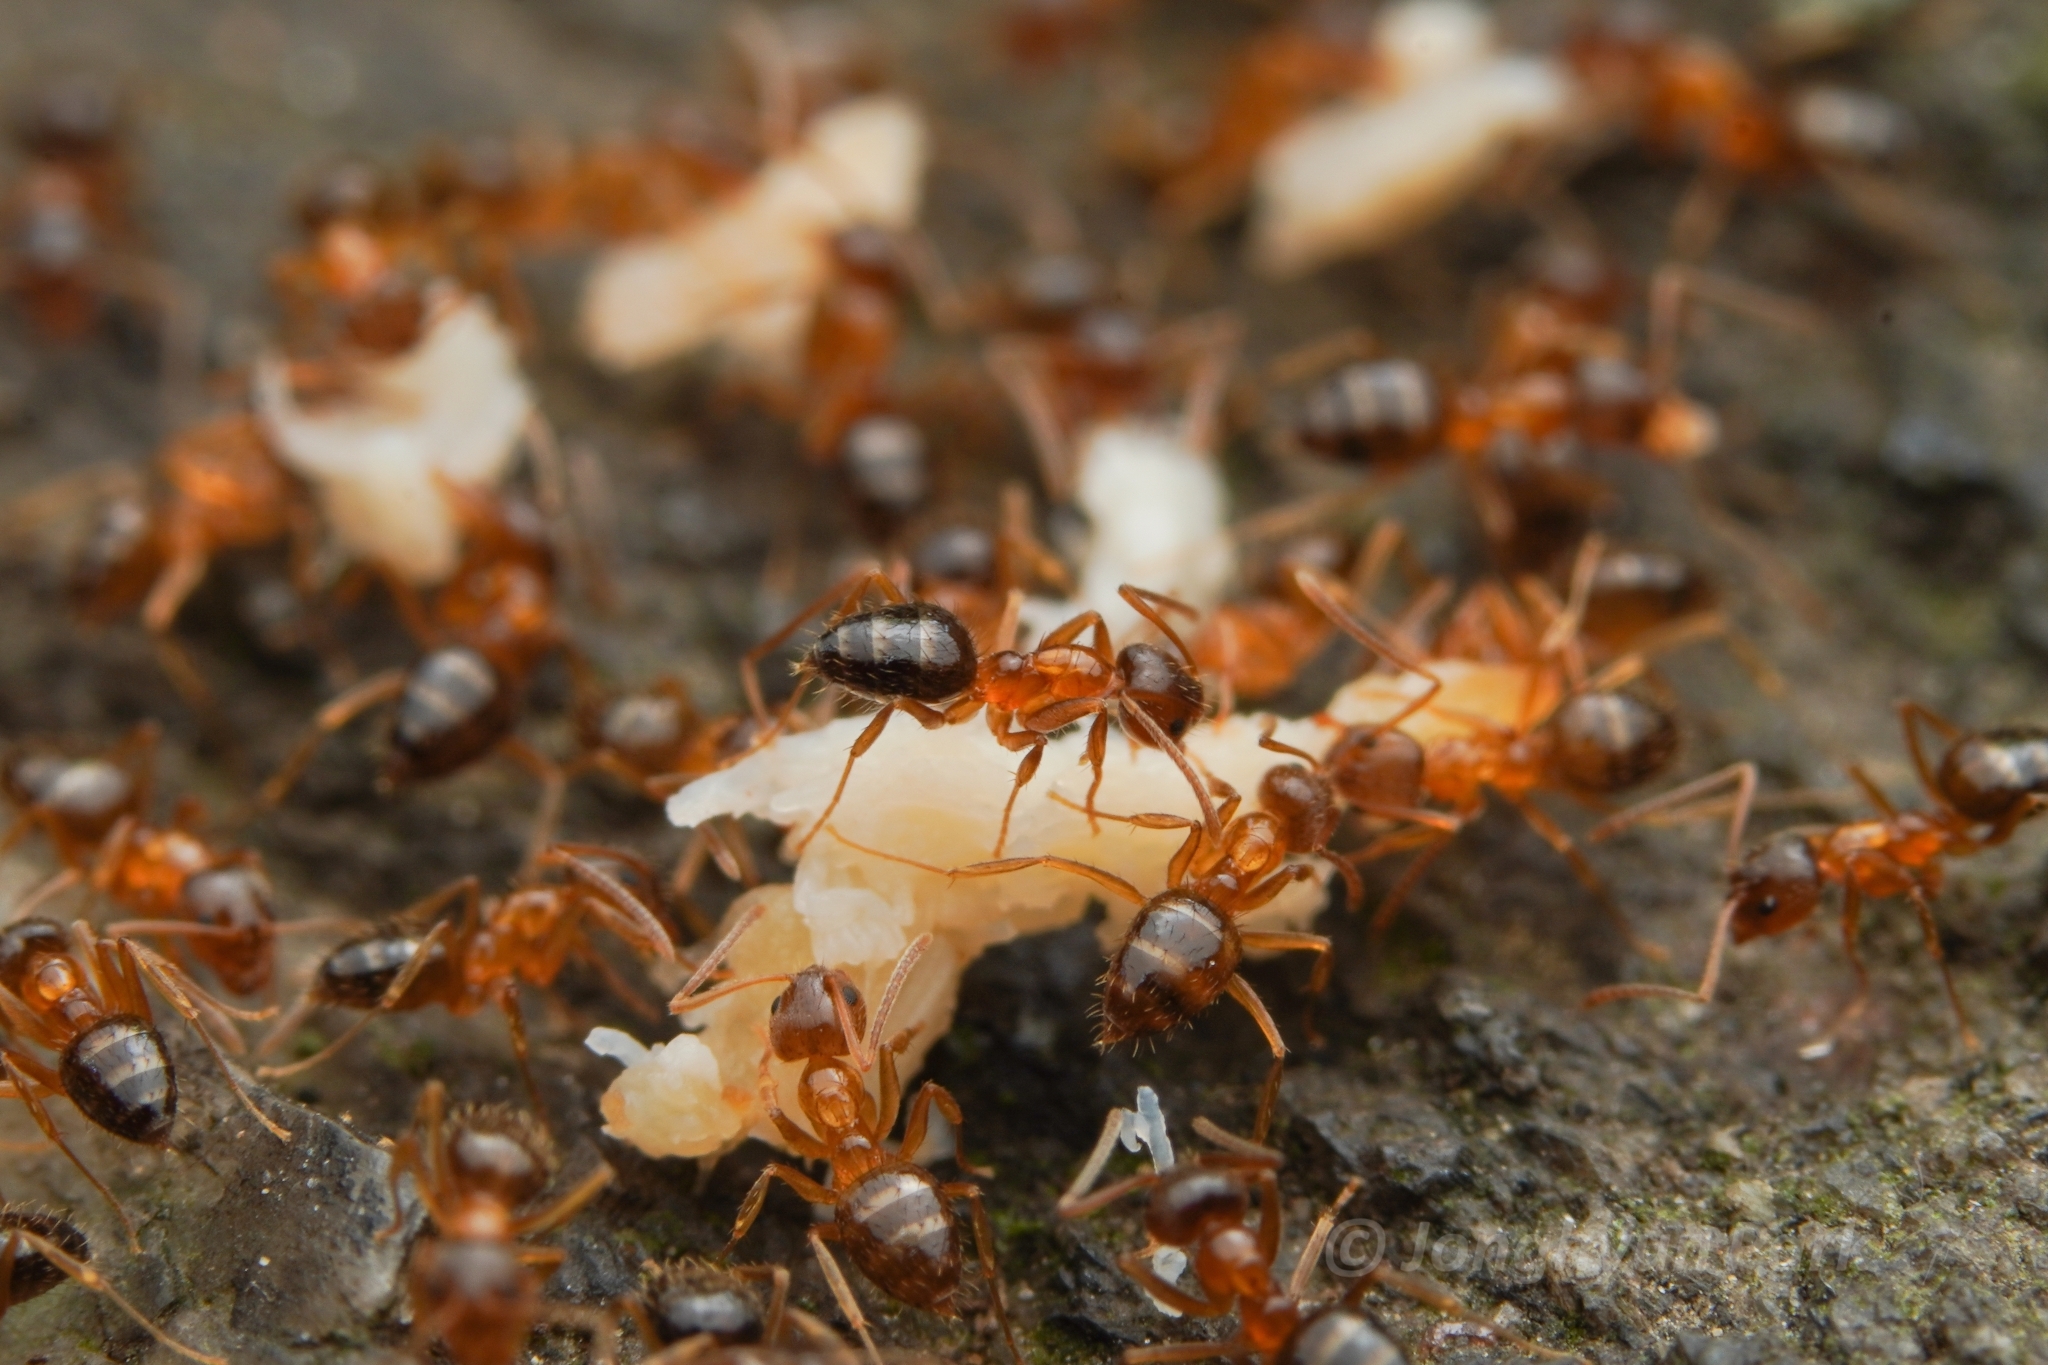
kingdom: Animalia
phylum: Arthropoda
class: Insecta
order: Hymenoptera
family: Formicidae
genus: Paratrechina
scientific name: Paratrechina flavipes
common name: Eastern asian formicine ant
